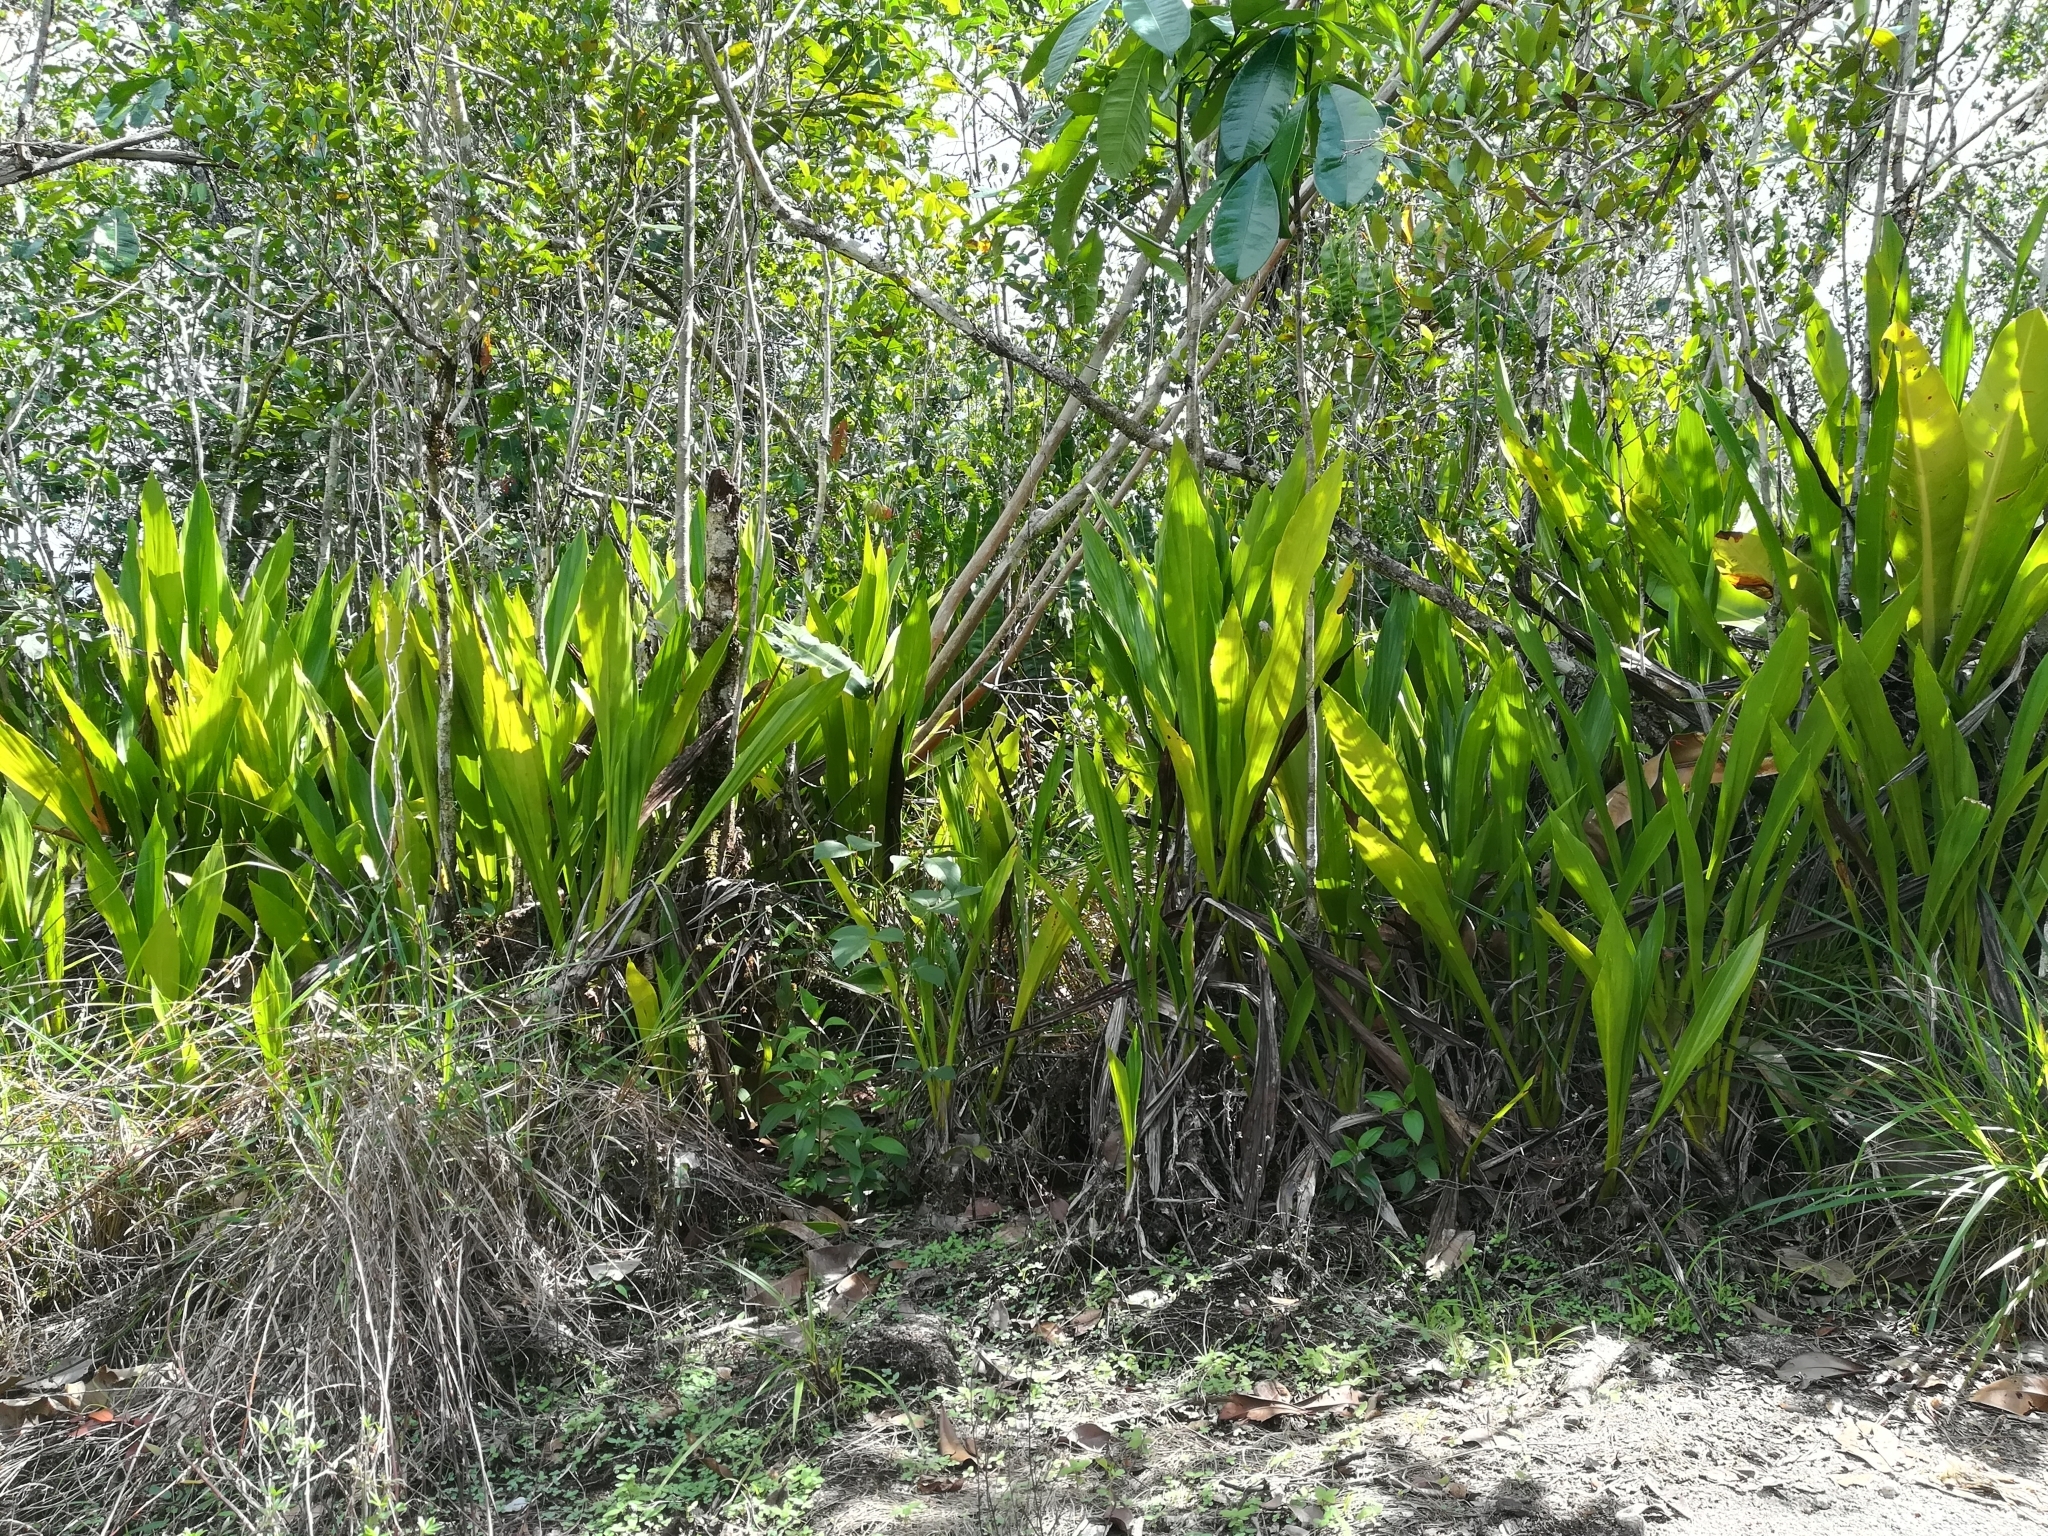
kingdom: Plantae
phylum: Tracheophyta
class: Liliopsida
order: Pandanales
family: Cyclanthaceae
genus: Ludovia
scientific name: Ludovia lancifolia
